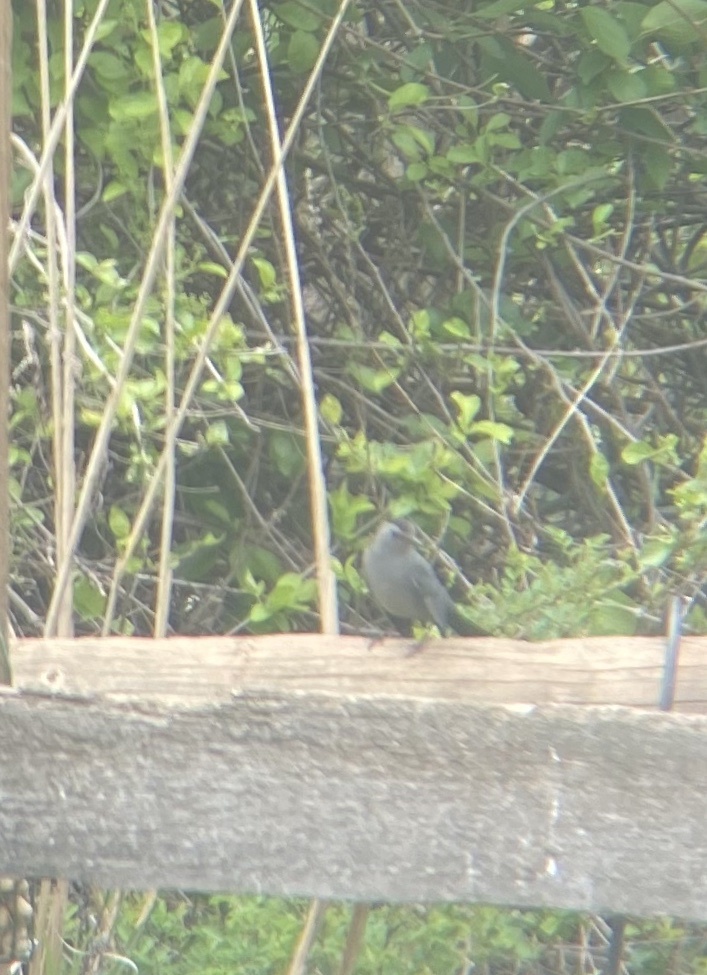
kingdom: Animalia
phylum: Chordata
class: Aves
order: Passeriformes
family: Mimidae
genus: Dumetella
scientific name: Dumetella carolinensis
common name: Gray catbird
